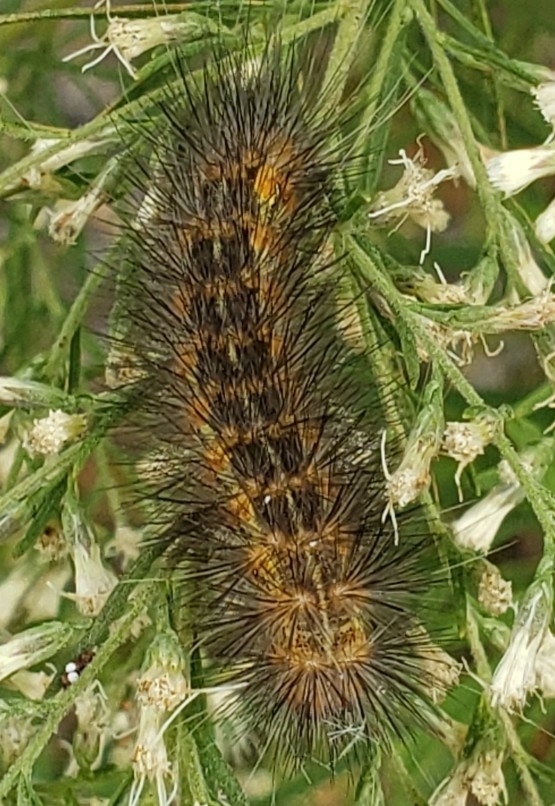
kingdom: Animalia
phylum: Arthropoda
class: Insecta
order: Lepidoptera
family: Erebidae
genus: Estigmene
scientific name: Estigmene acrea
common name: Salt marsh moth
